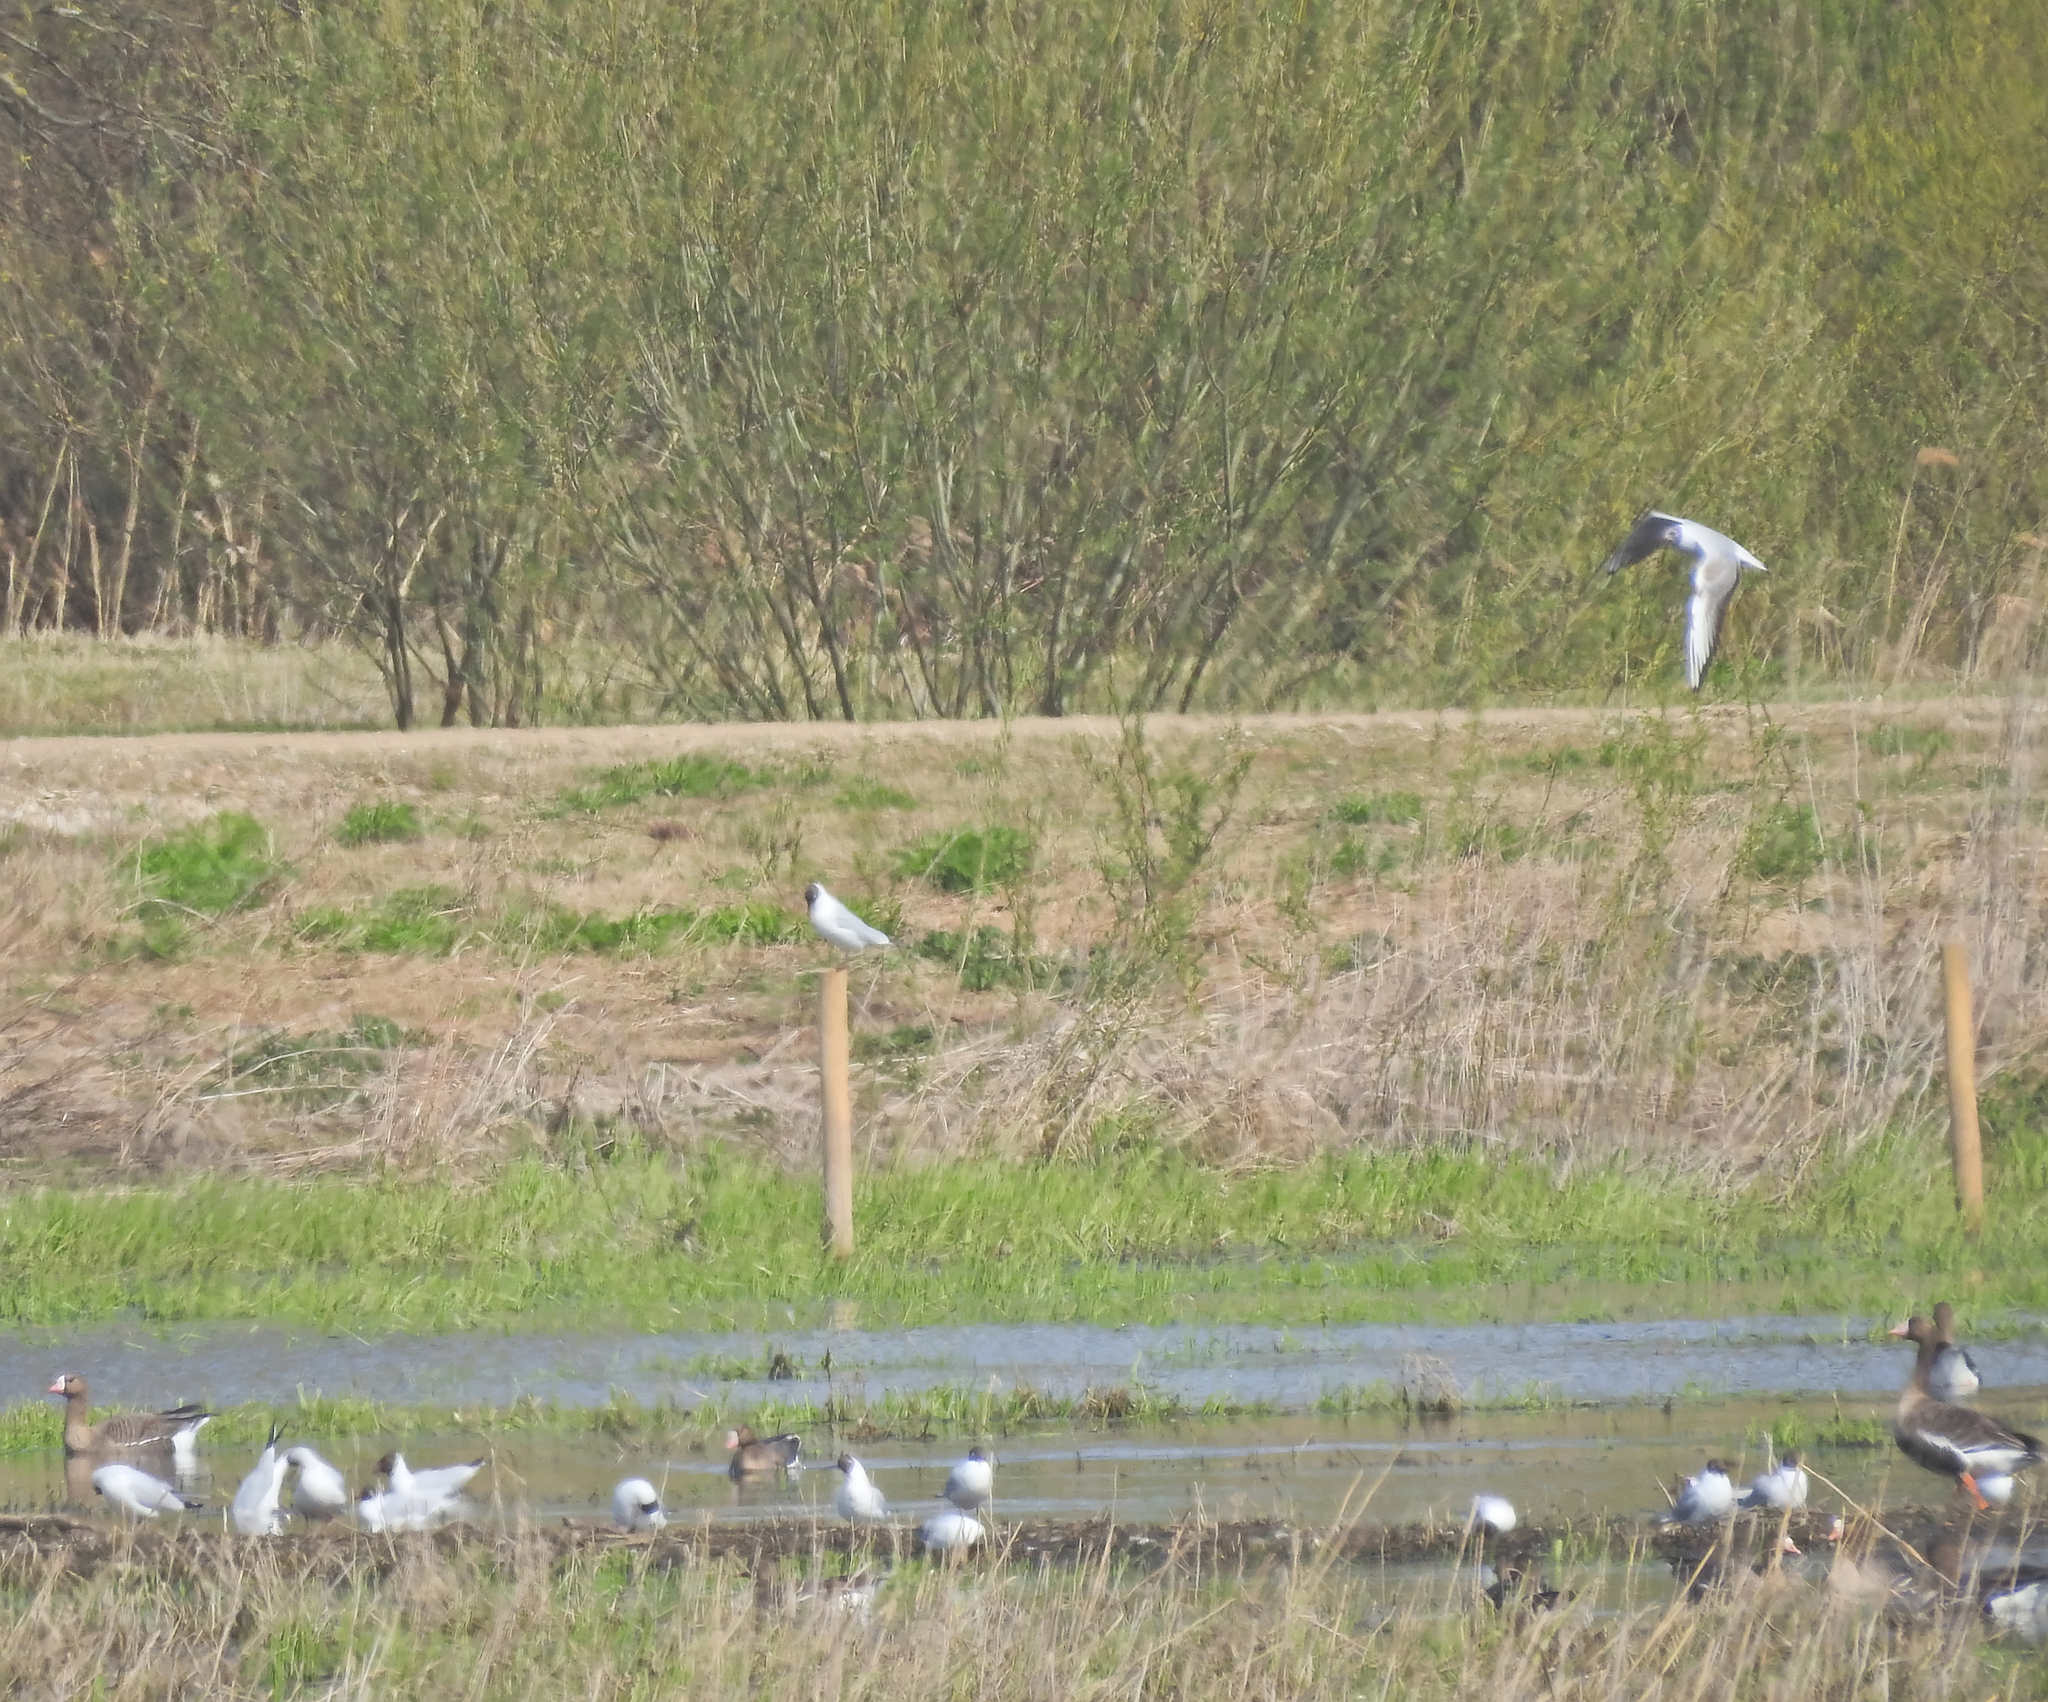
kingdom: Animalia
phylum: Chordata
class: Aves
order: Charadriiformes
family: Laridae
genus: Chroicocephalus
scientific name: Chroicocephalus ridibundus
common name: Black-headed gull
